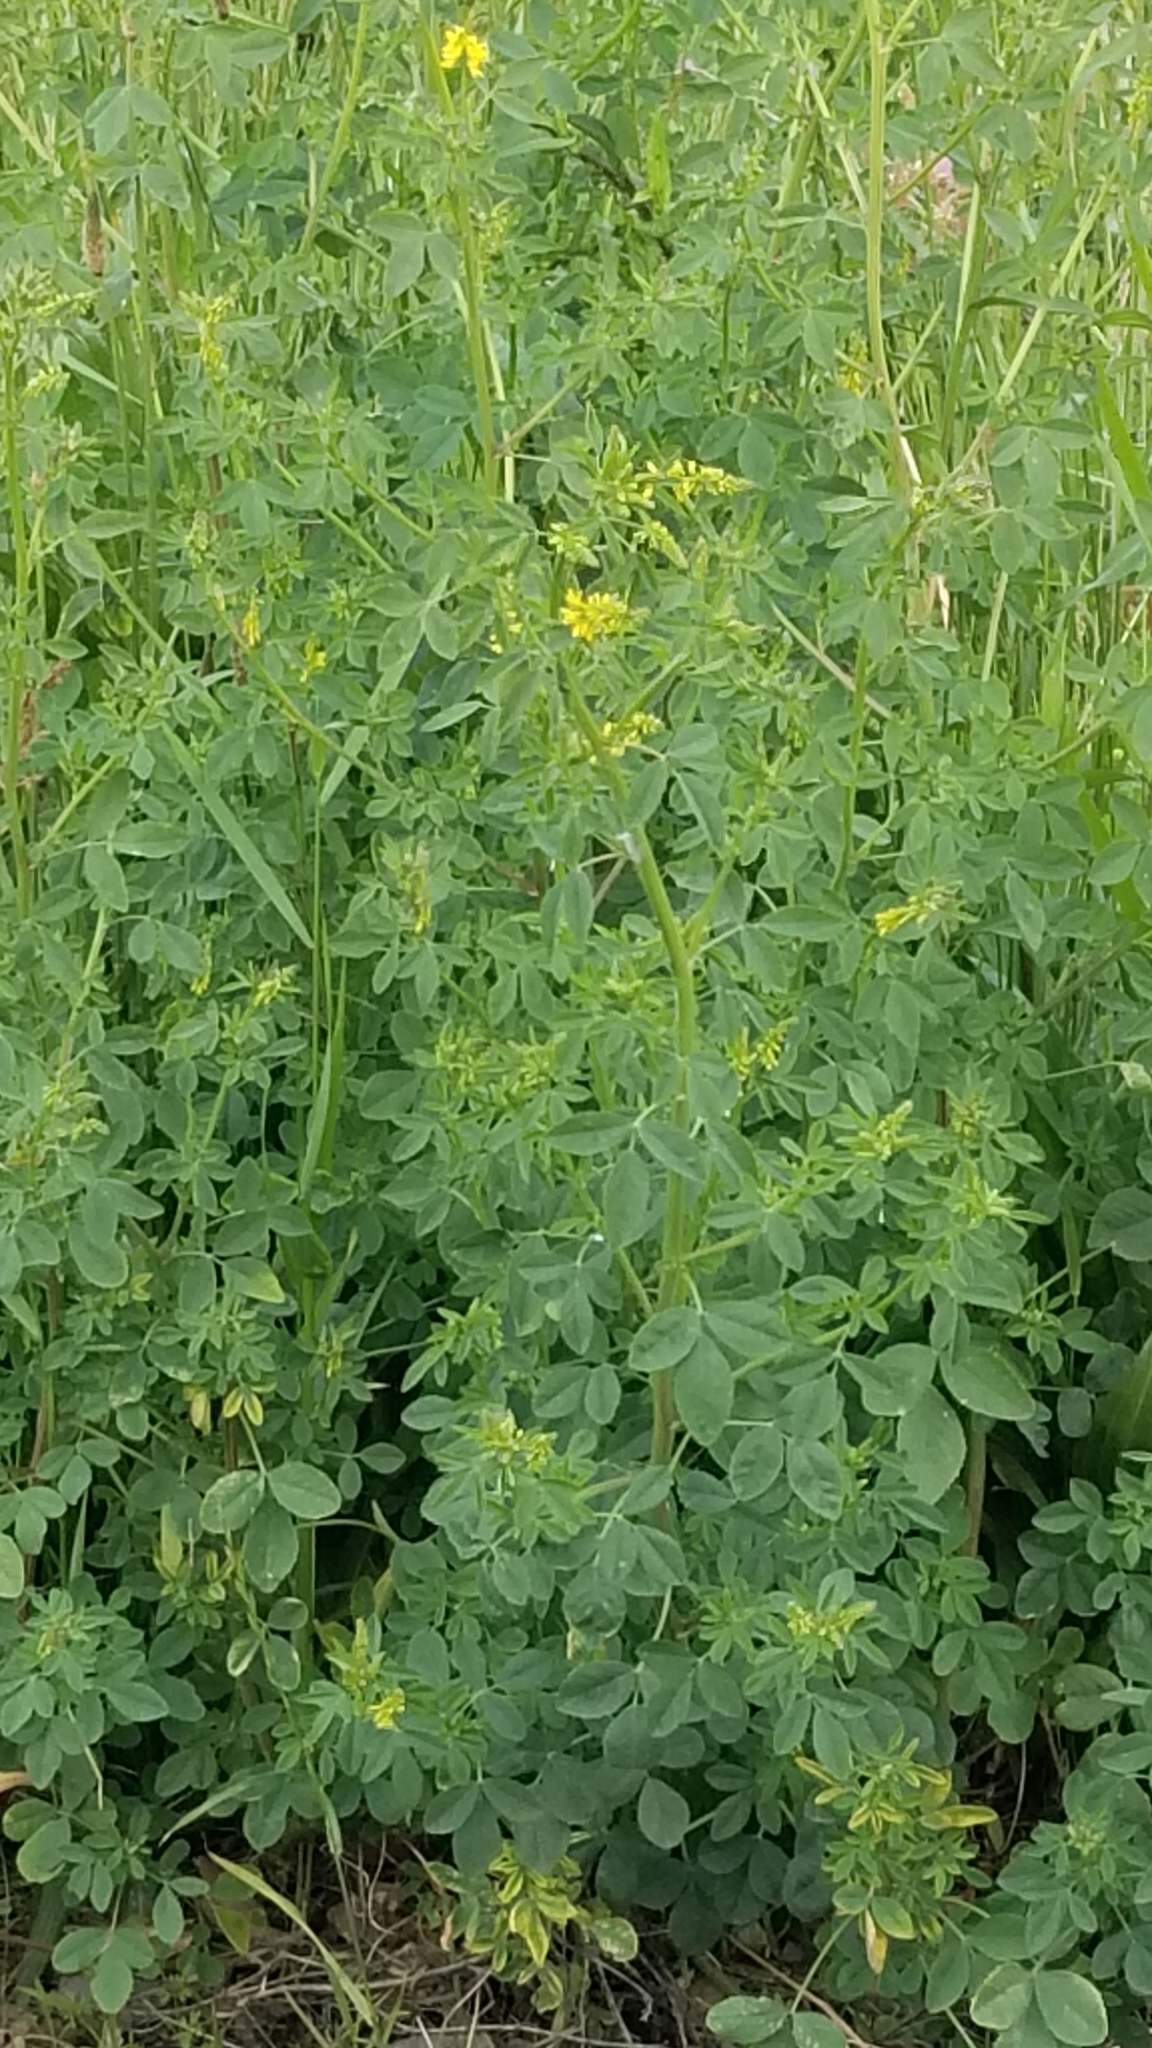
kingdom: Plantae
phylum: Tracheophyta
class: Magnoliopsida
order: Fabales
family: Fabaceae
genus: Melilotus
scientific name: Melilotus officinalis
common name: Sweetclover
